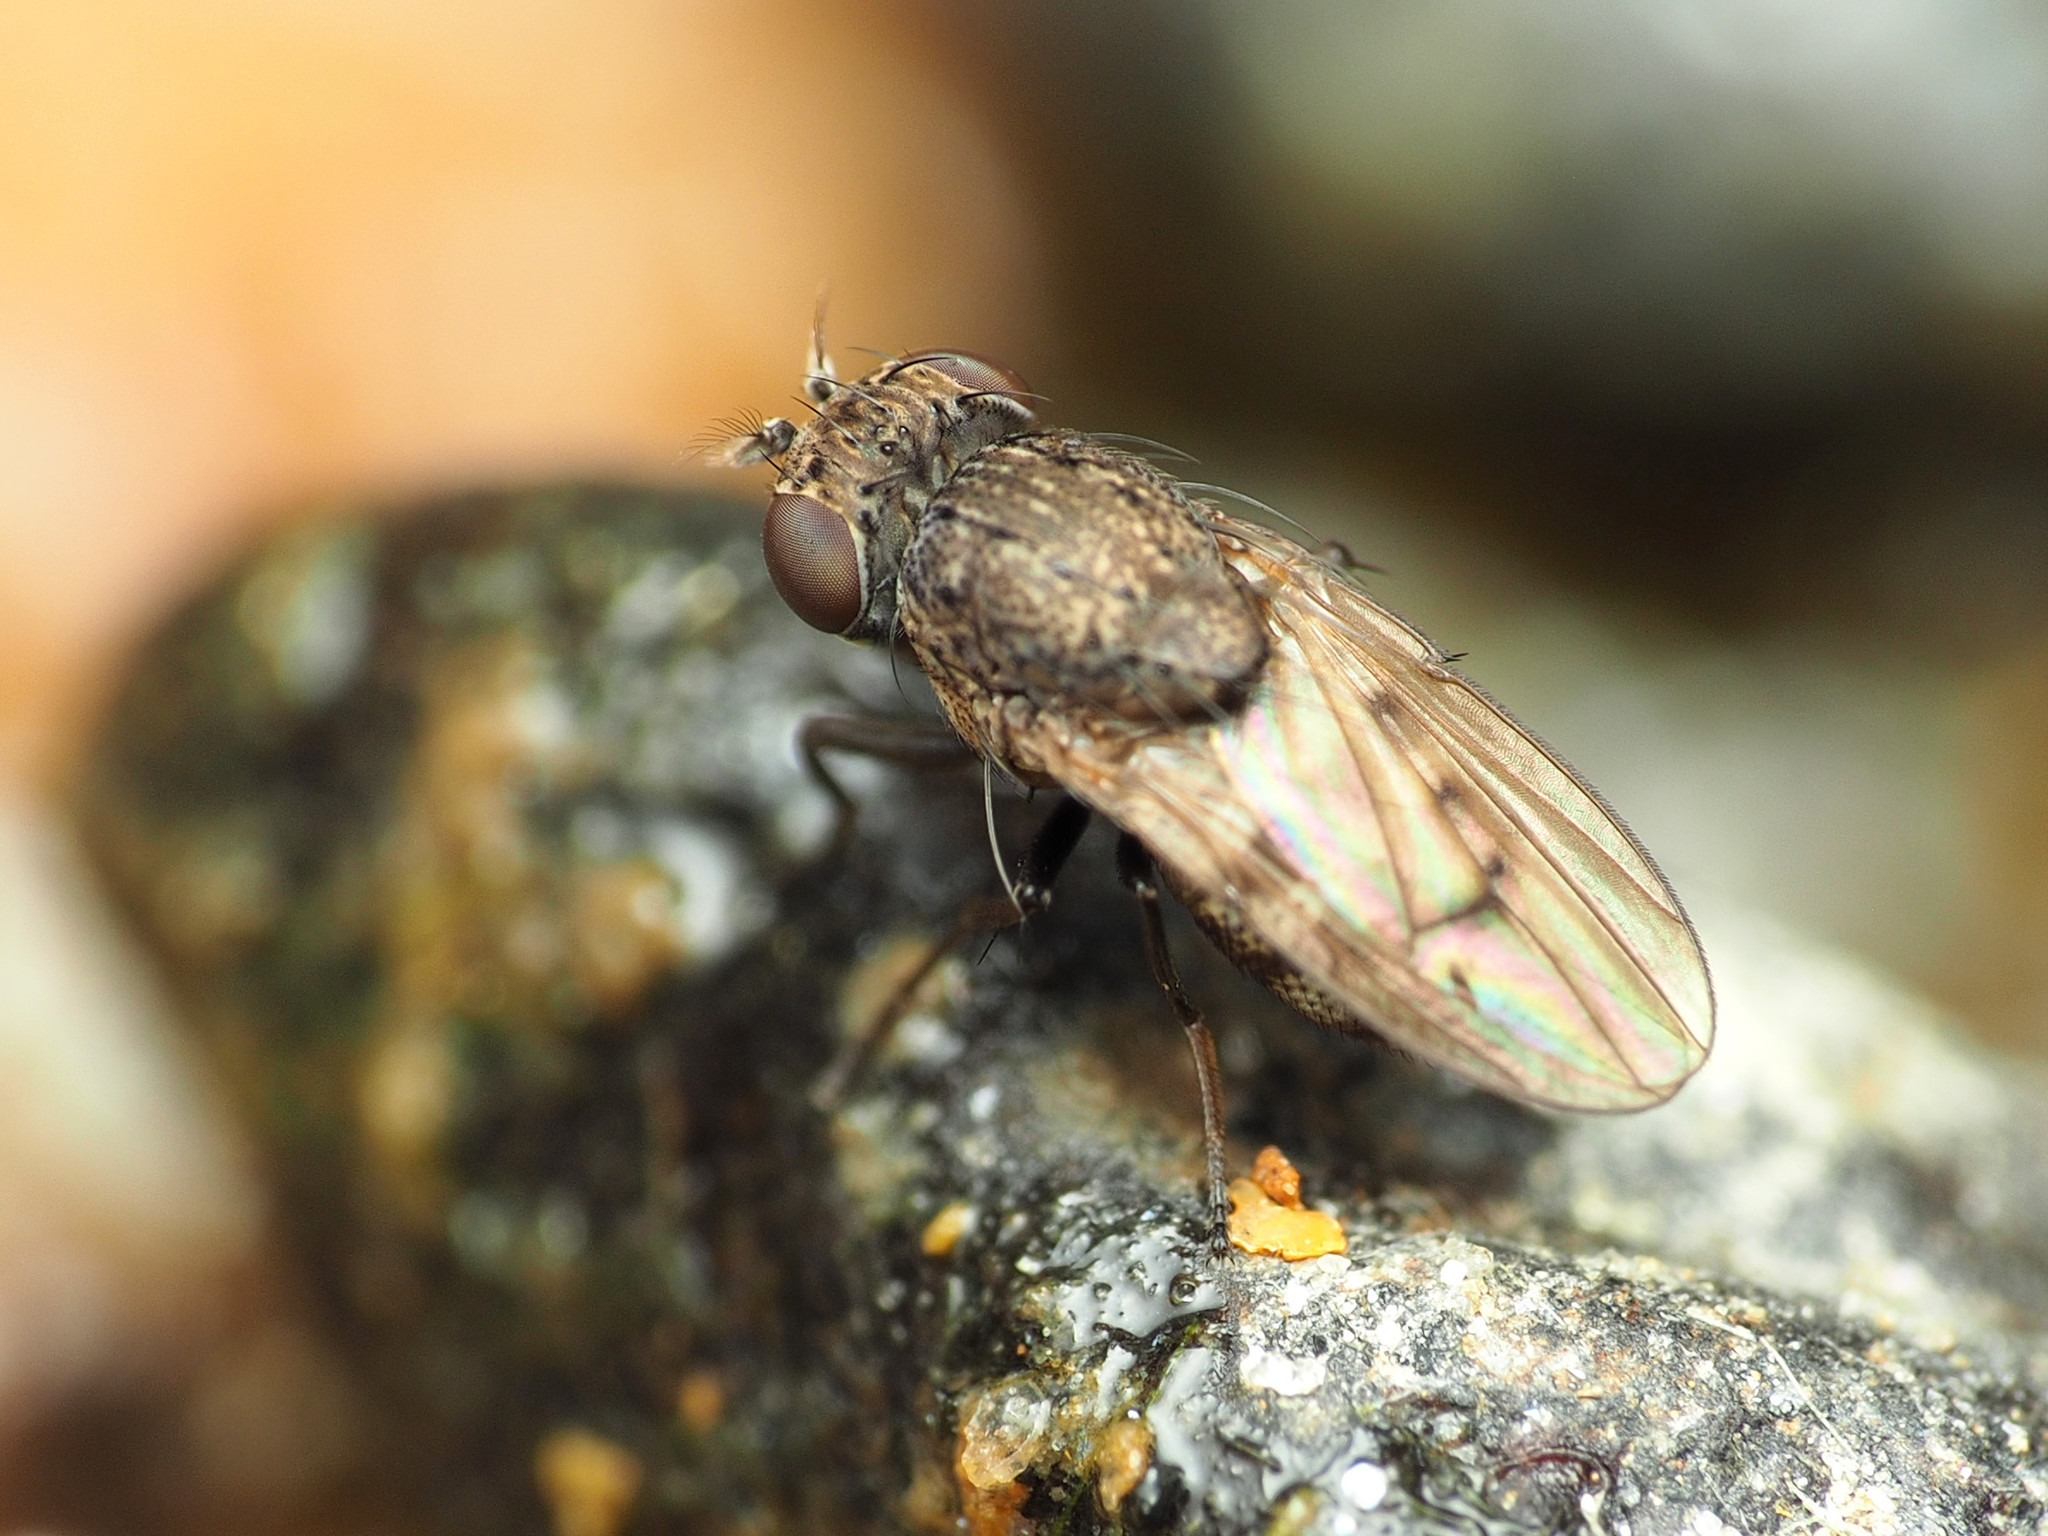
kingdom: Animalia
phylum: Arthropoda
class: Insecta
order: Diptera
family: Ephydridae
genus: Paralimna
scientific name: Paralimna punctipennis
